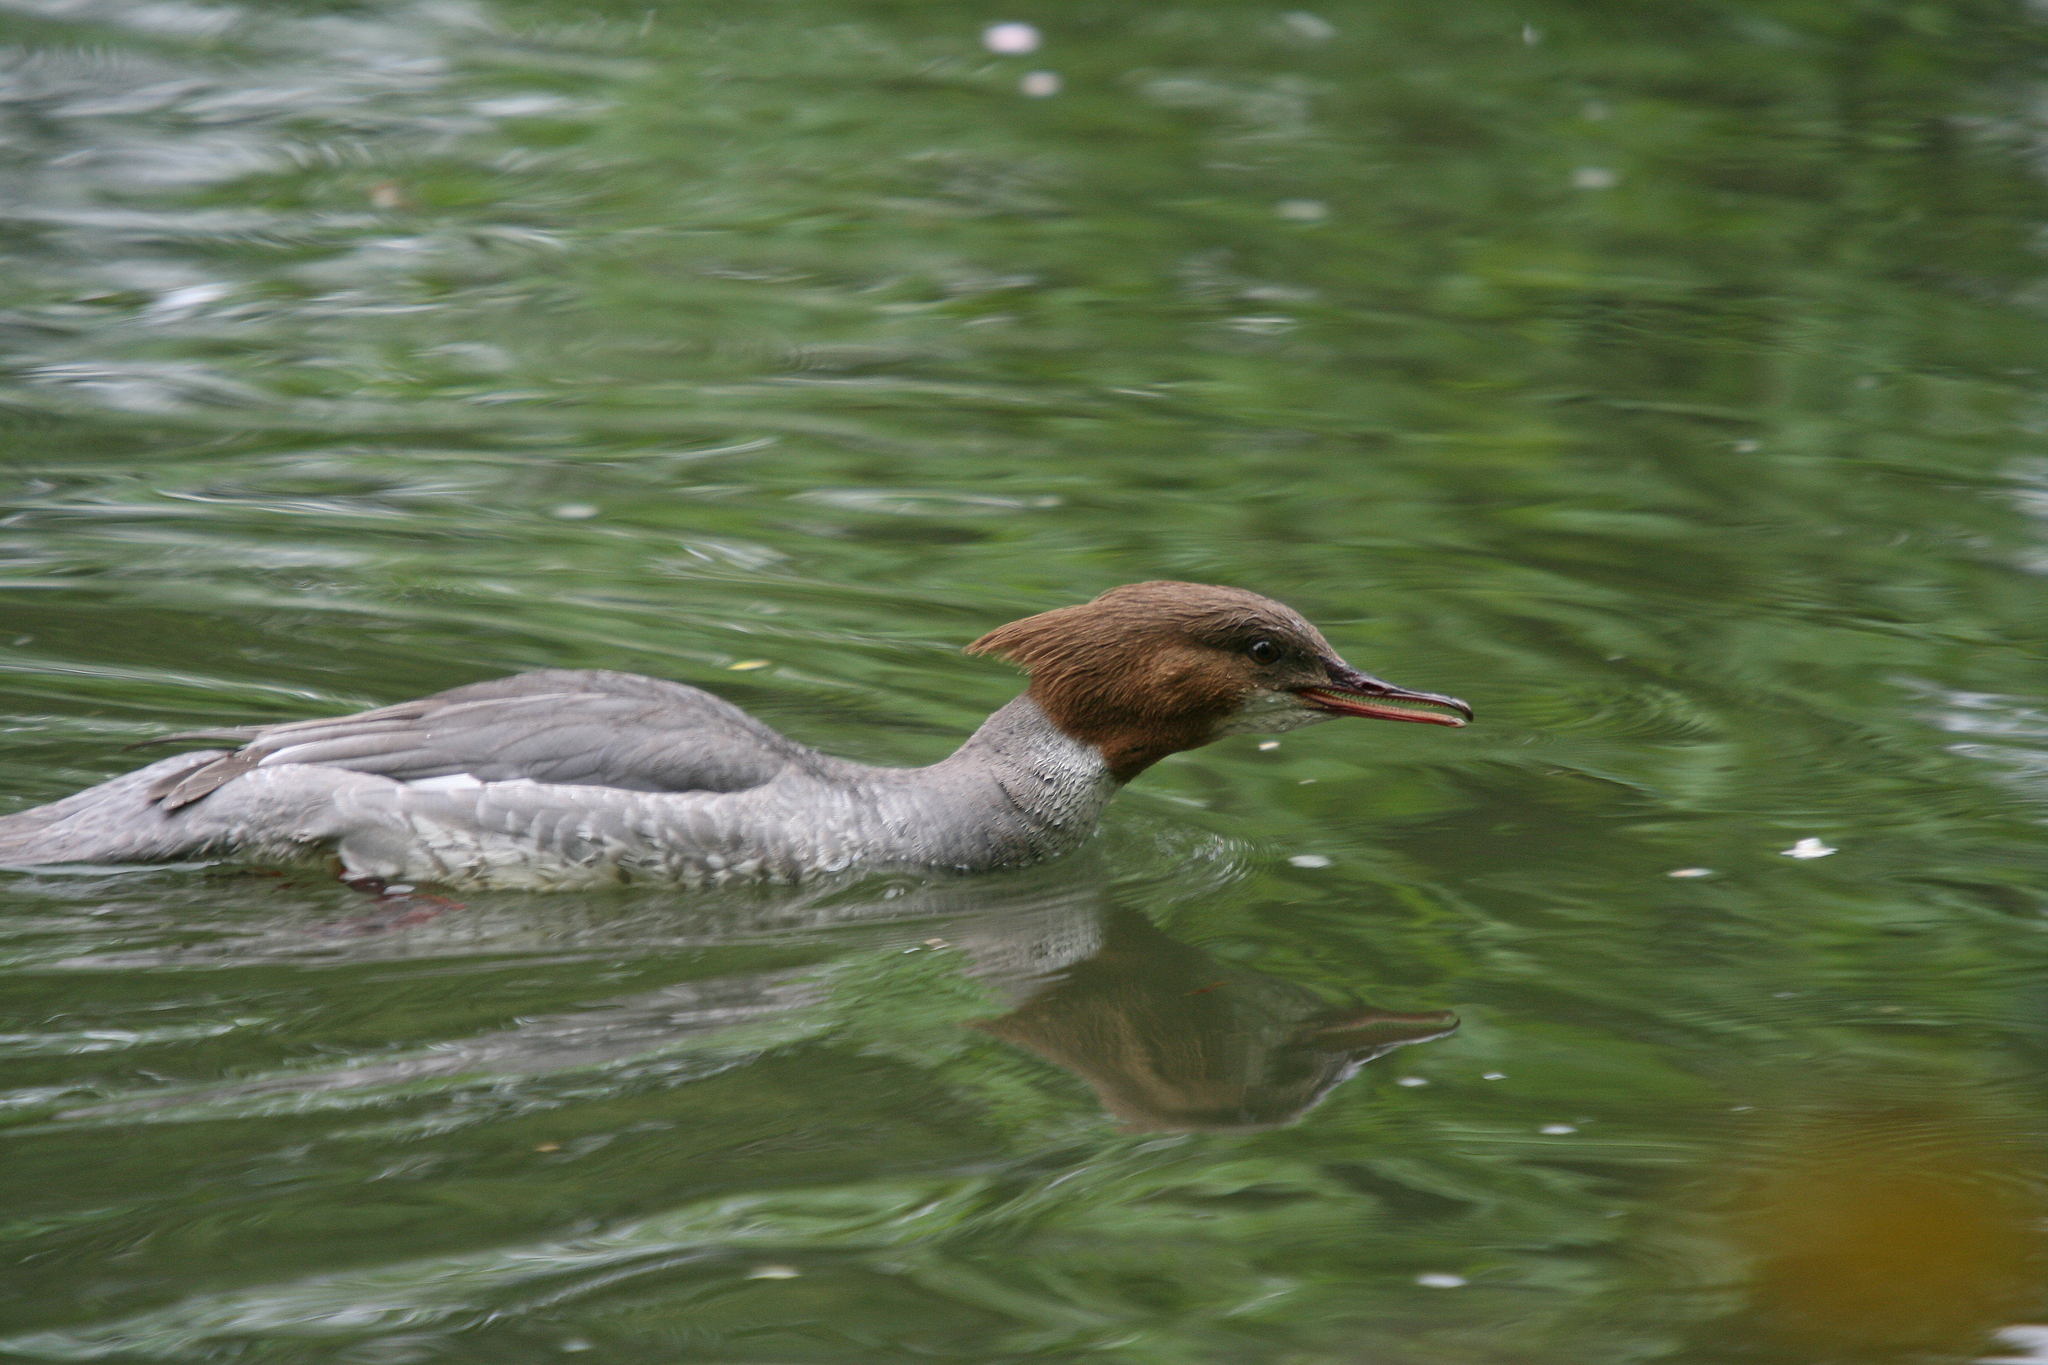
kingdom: Animalia
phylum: Chordata
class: Aves
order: Anseriformes
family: Anatidae
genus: Mergus
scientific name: Mergus merganser
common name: Common merganser
